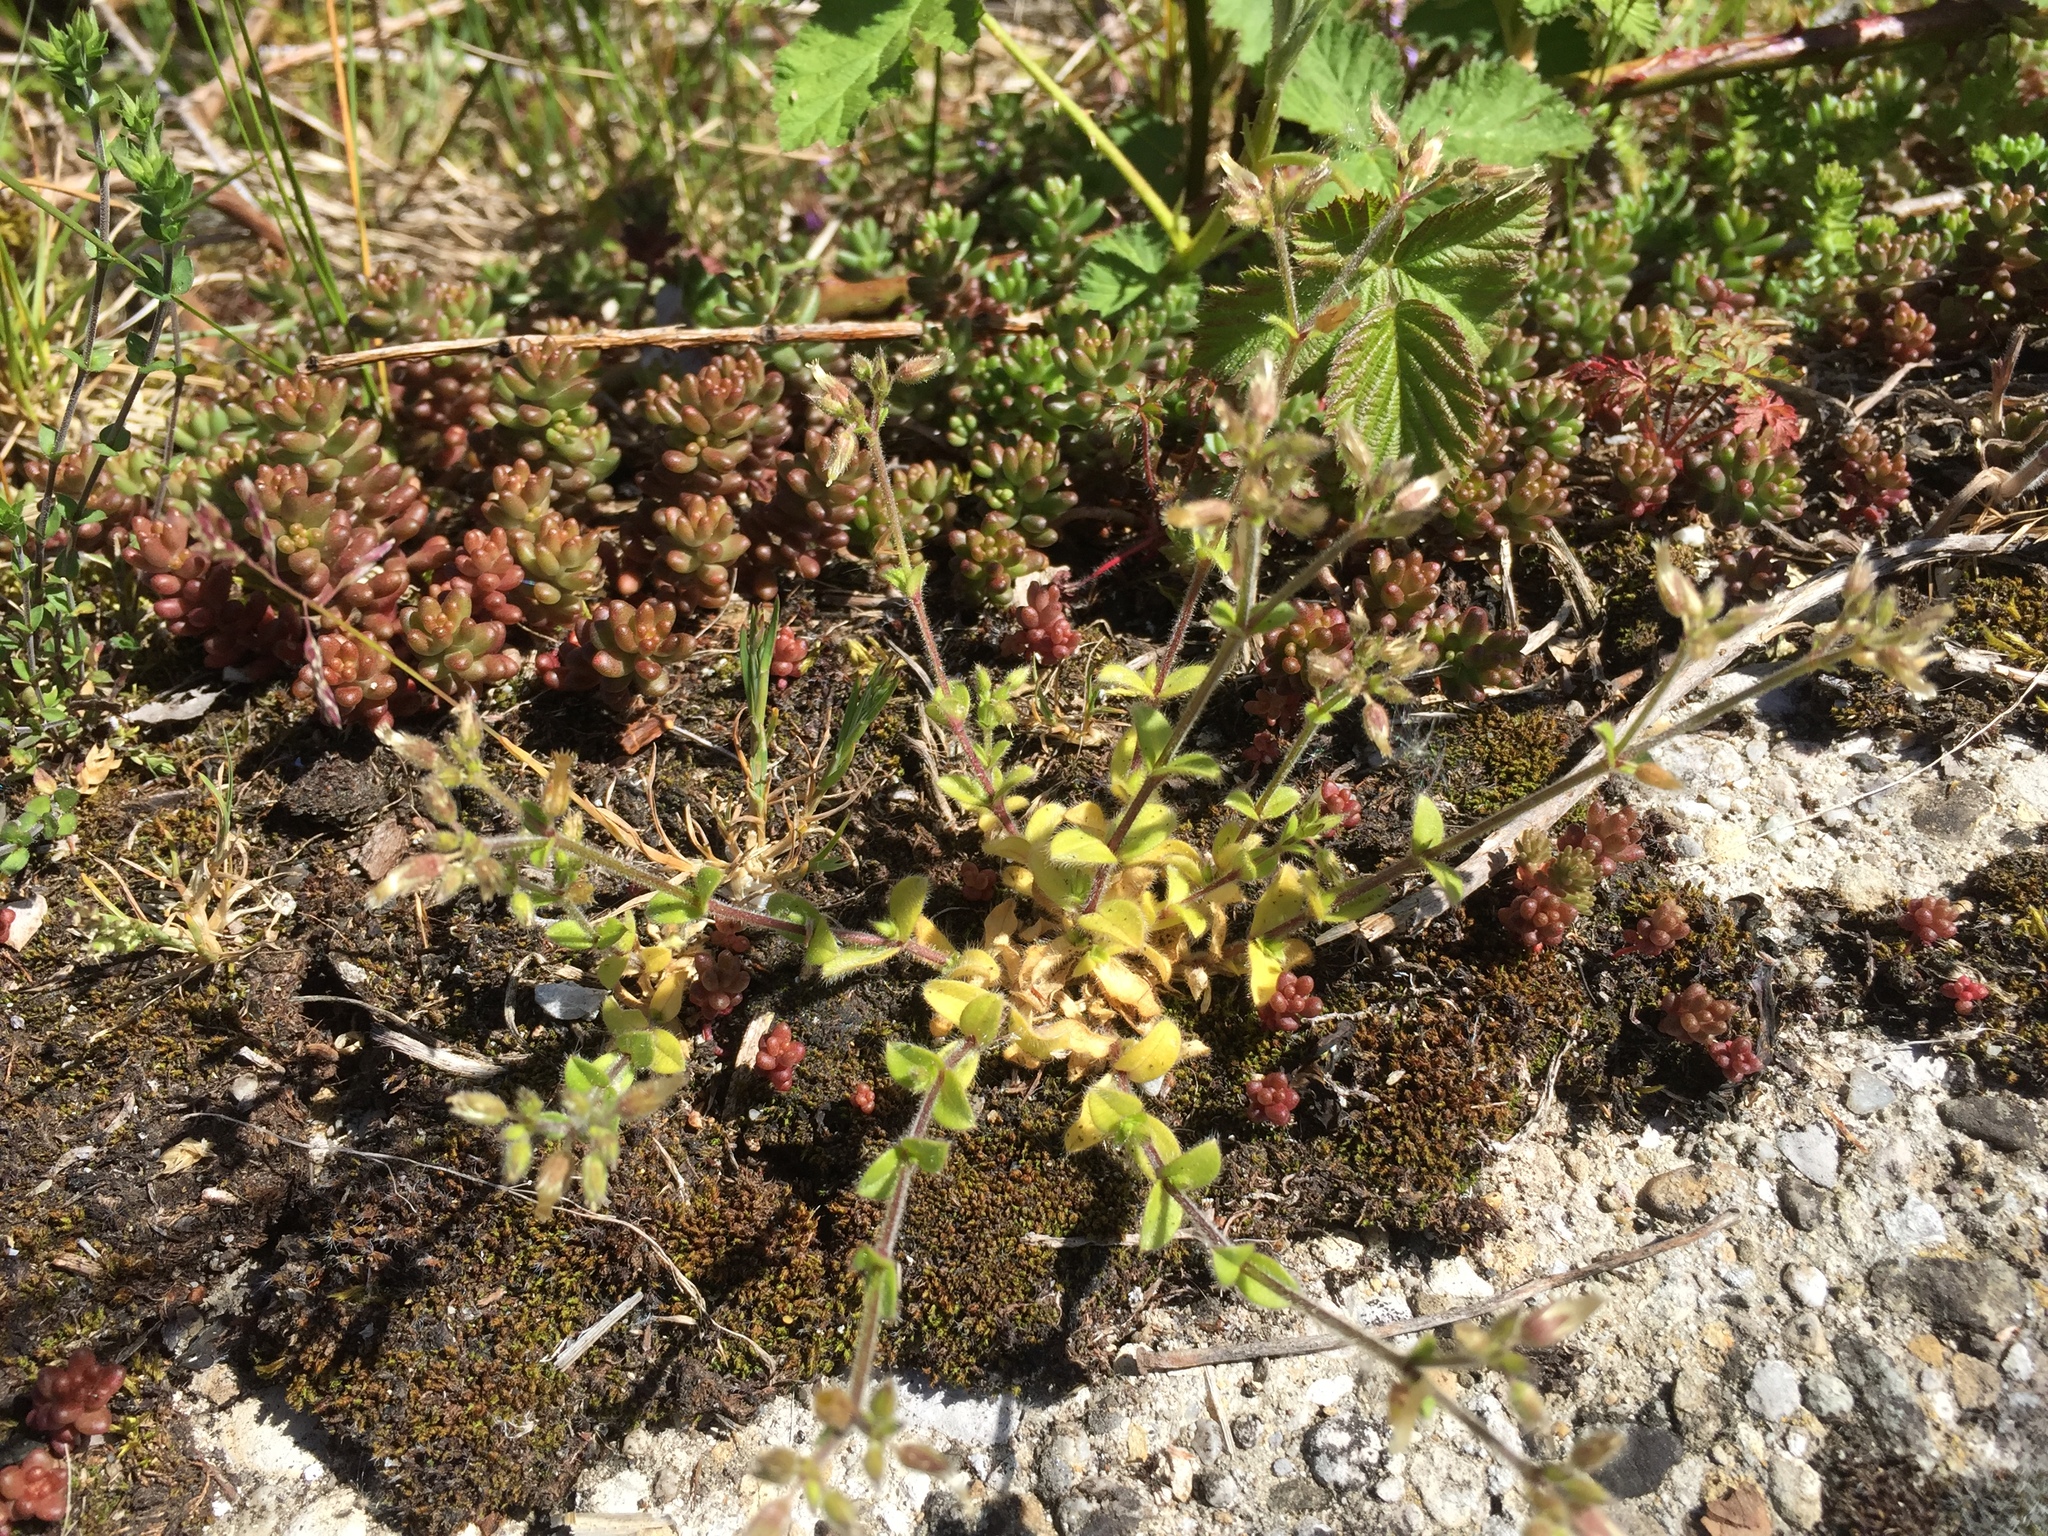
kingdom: Plantae
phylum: Tracheophyta
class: Magnoliopsida
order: Caryophyllales
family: Caryophyllaceae
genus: Cerastium
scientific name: Cerastium glomeratum
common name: Sticky chickweed
